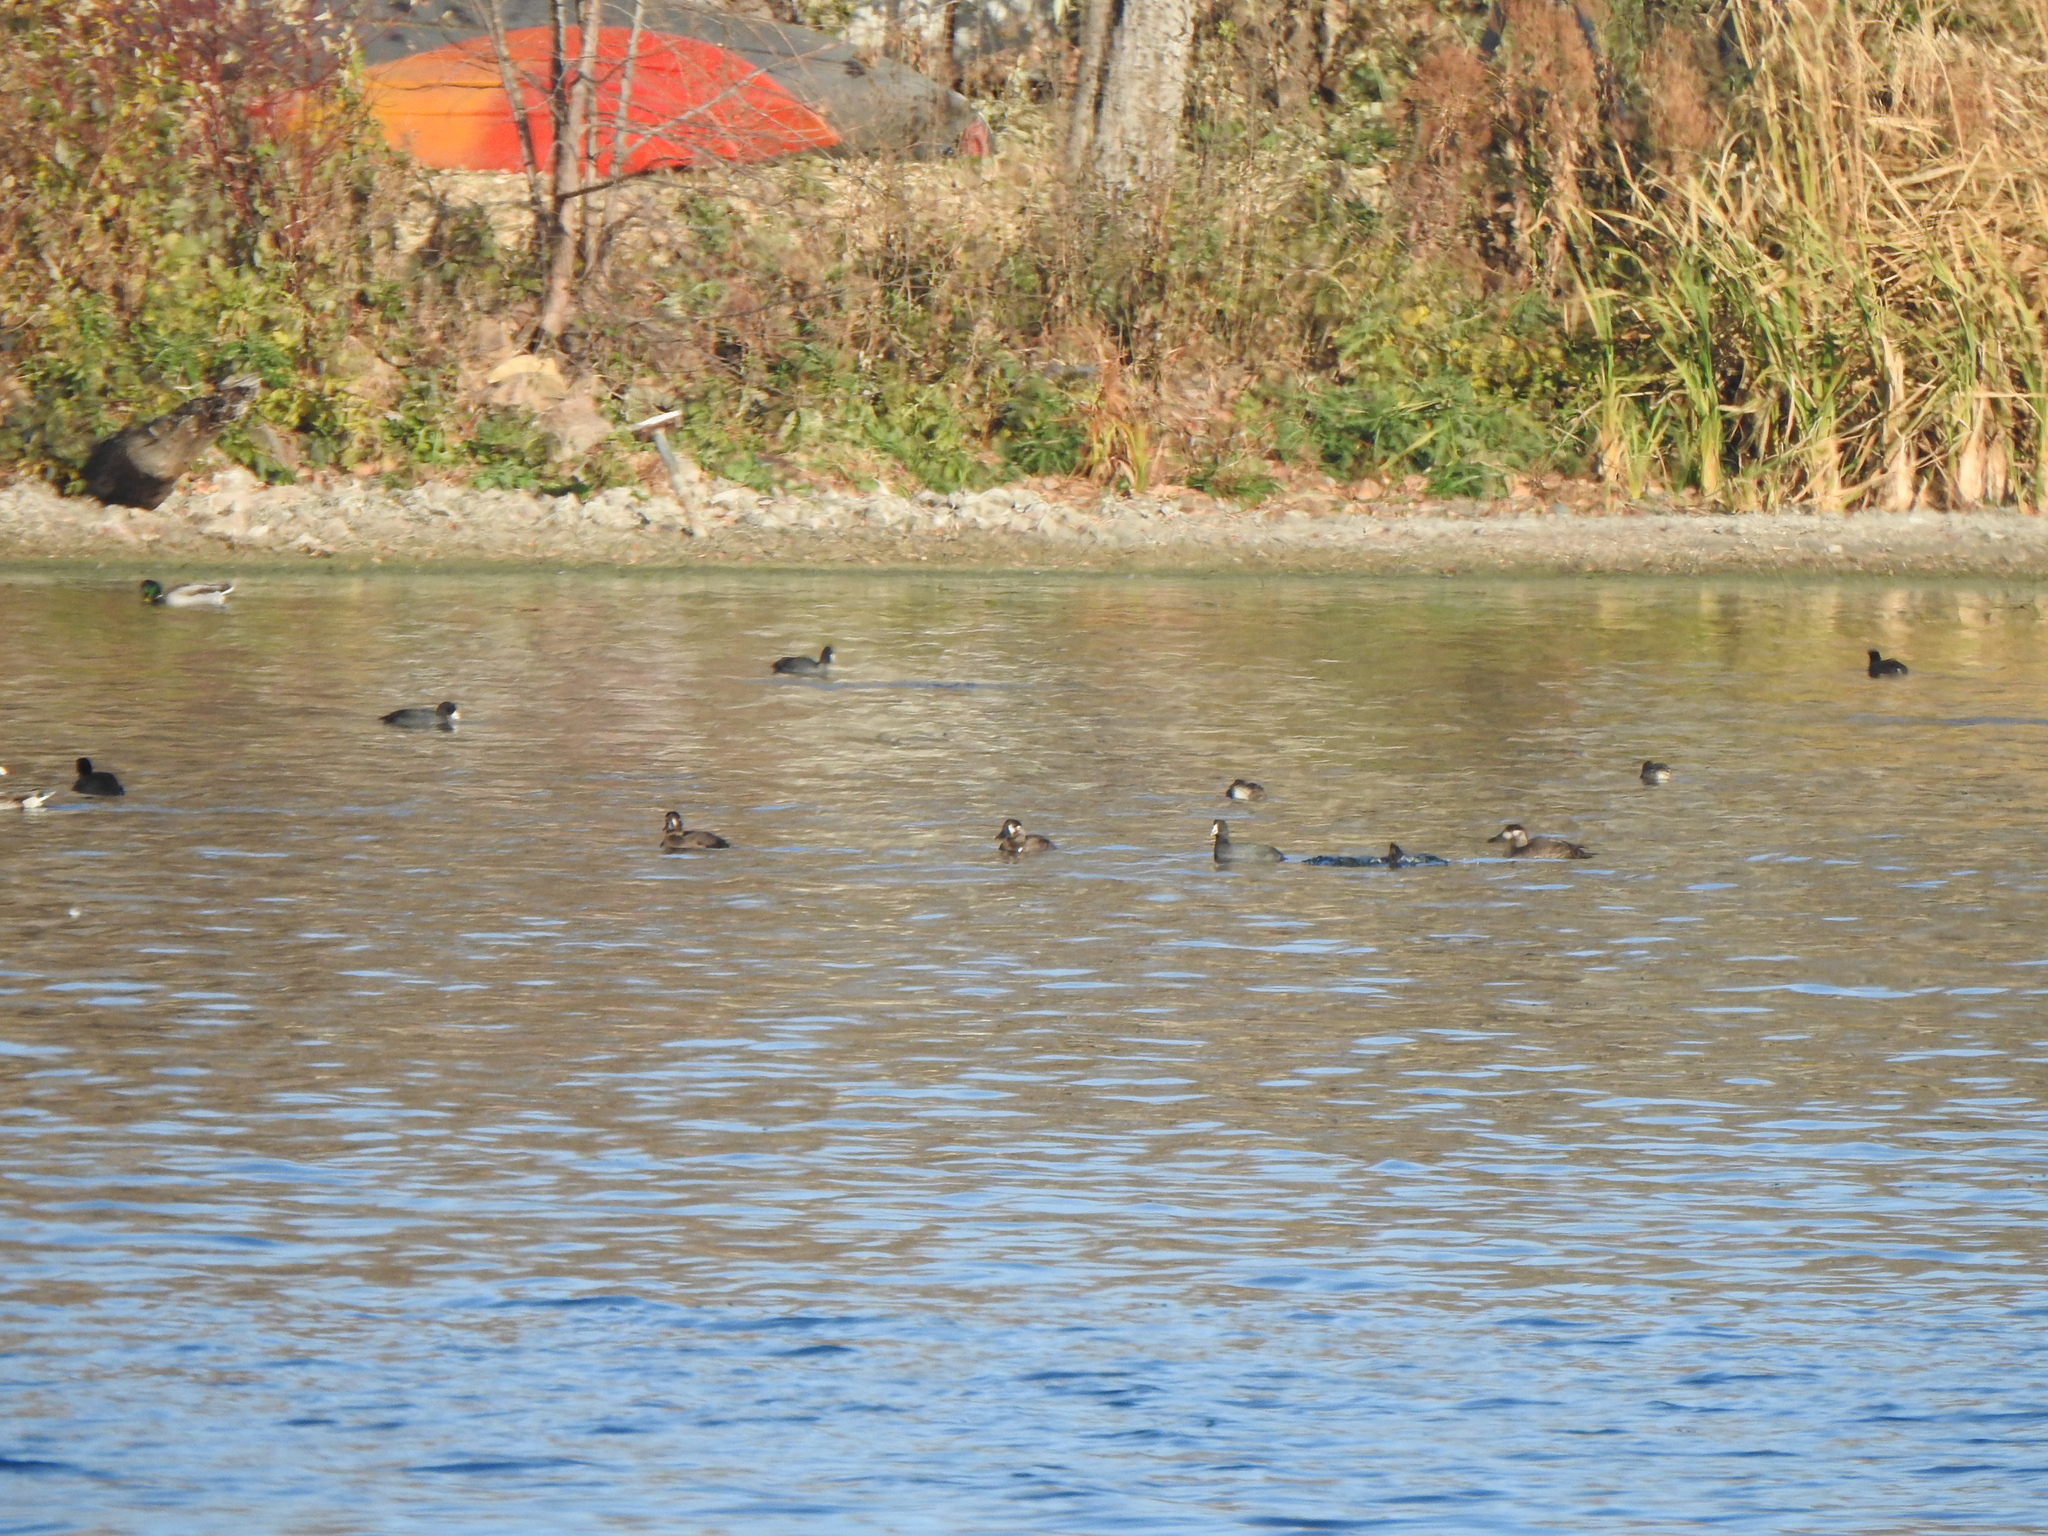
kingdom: Animalia
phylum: Chordata
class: Aves
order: Anseriformes
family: Anatidae
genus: Melanitta
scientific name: Melanitta perspicillata
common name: Surf scoter
